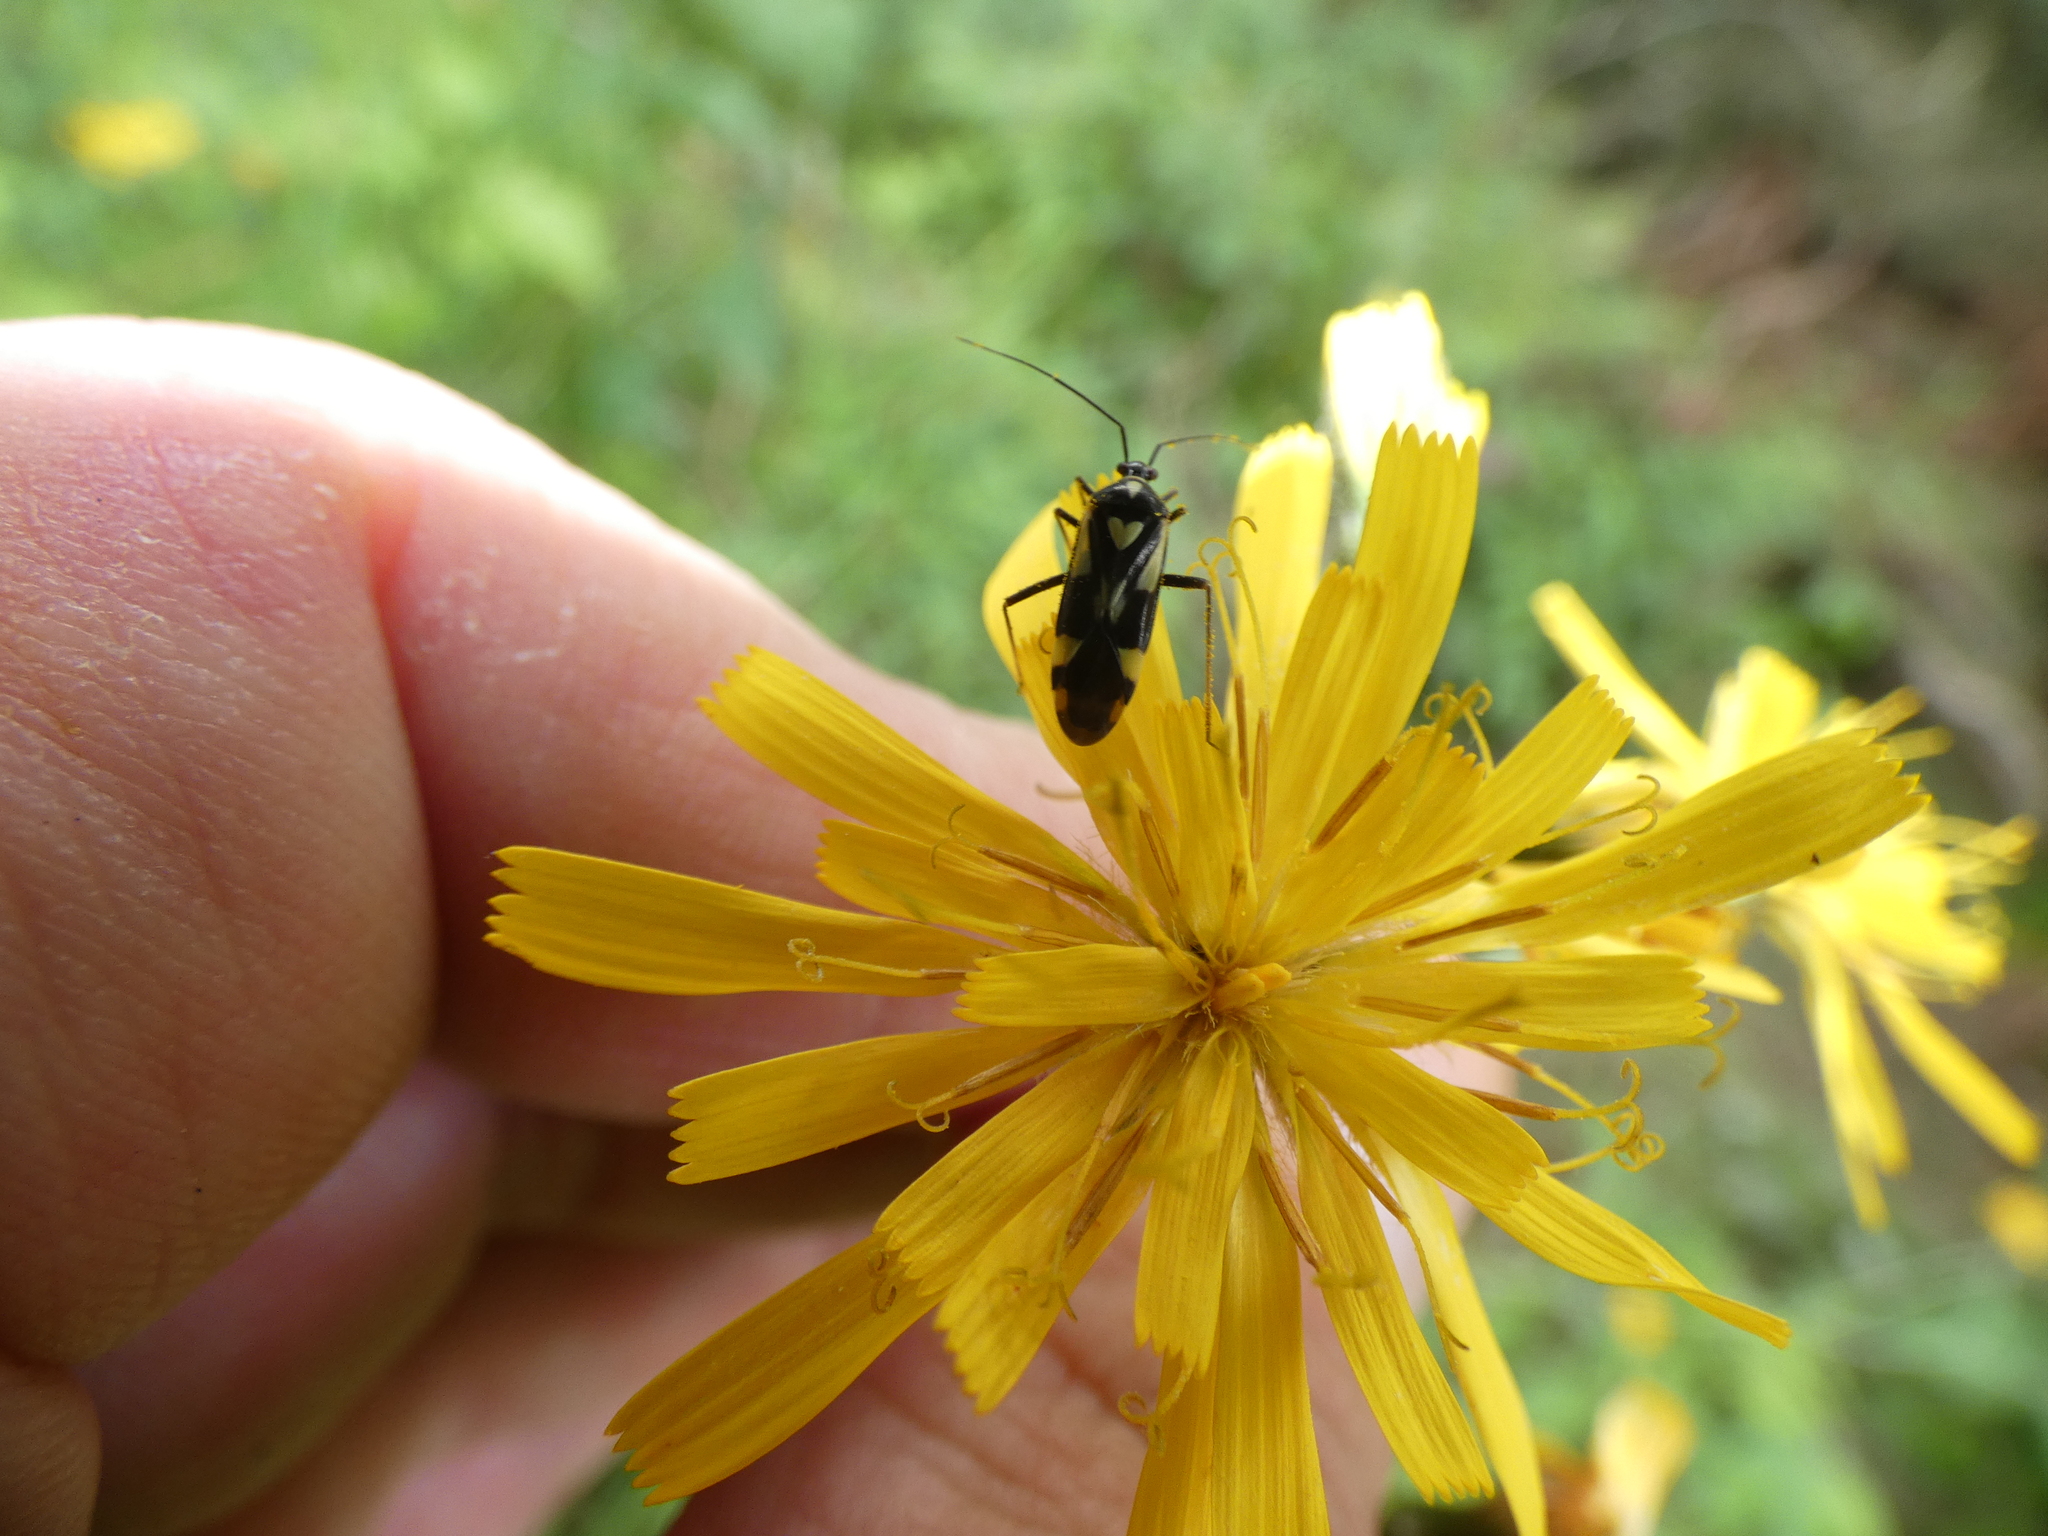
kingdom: Animalia
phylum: Arthropoda
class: Insecta
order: Hemiptera
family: Miridae
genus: Grypocoris
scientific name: Grypocoris sexguttatus
